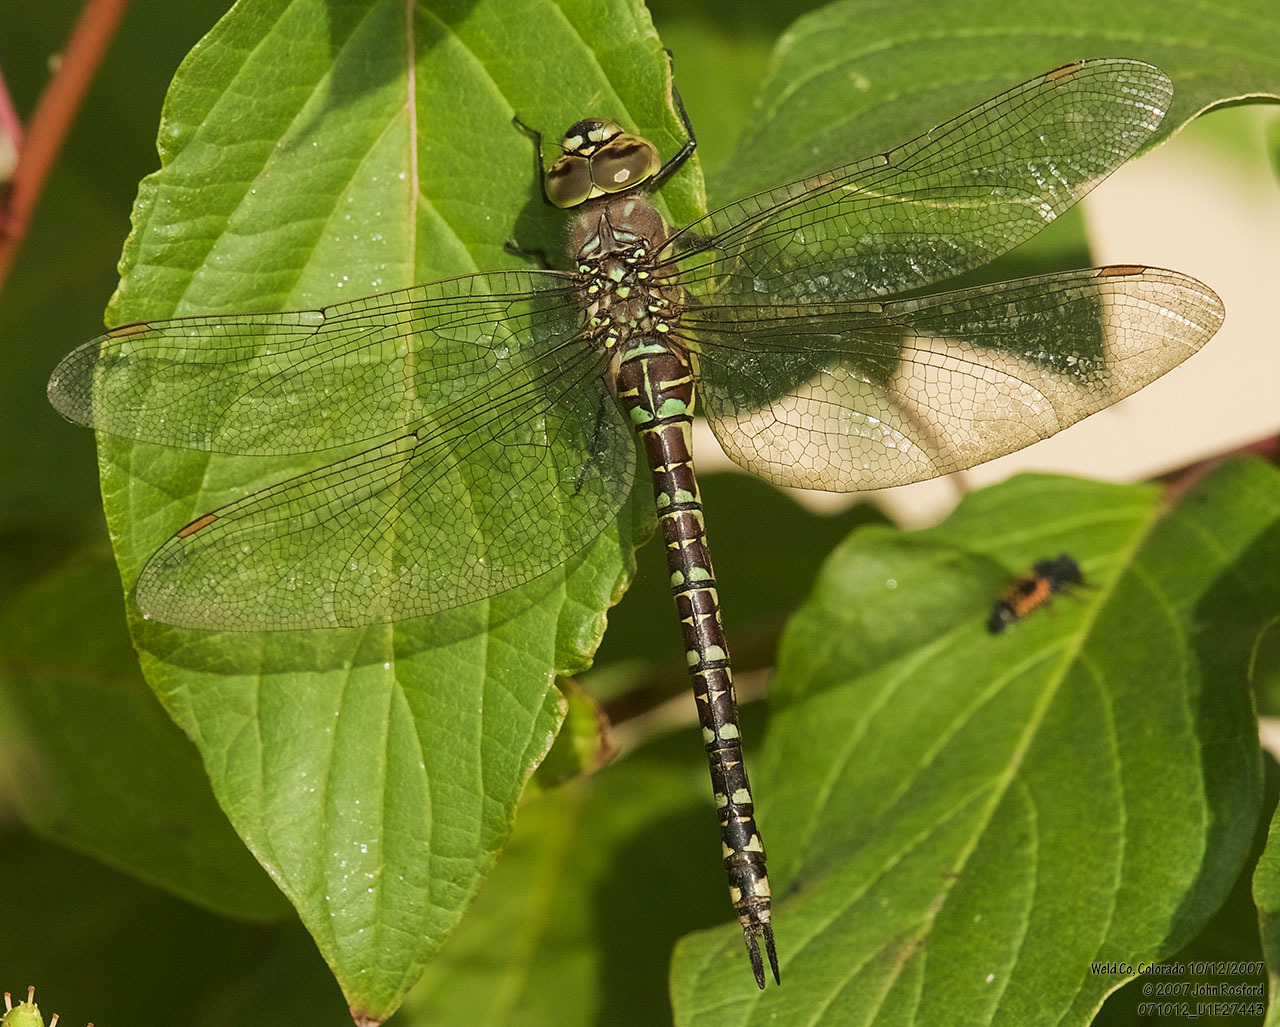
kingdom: Animalia
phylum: Arthropoda
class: Insecta
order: Odonata
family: Aeshnidae
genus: Aeshna
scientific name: Aeshna palmata
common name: Paddle-tailed darner
